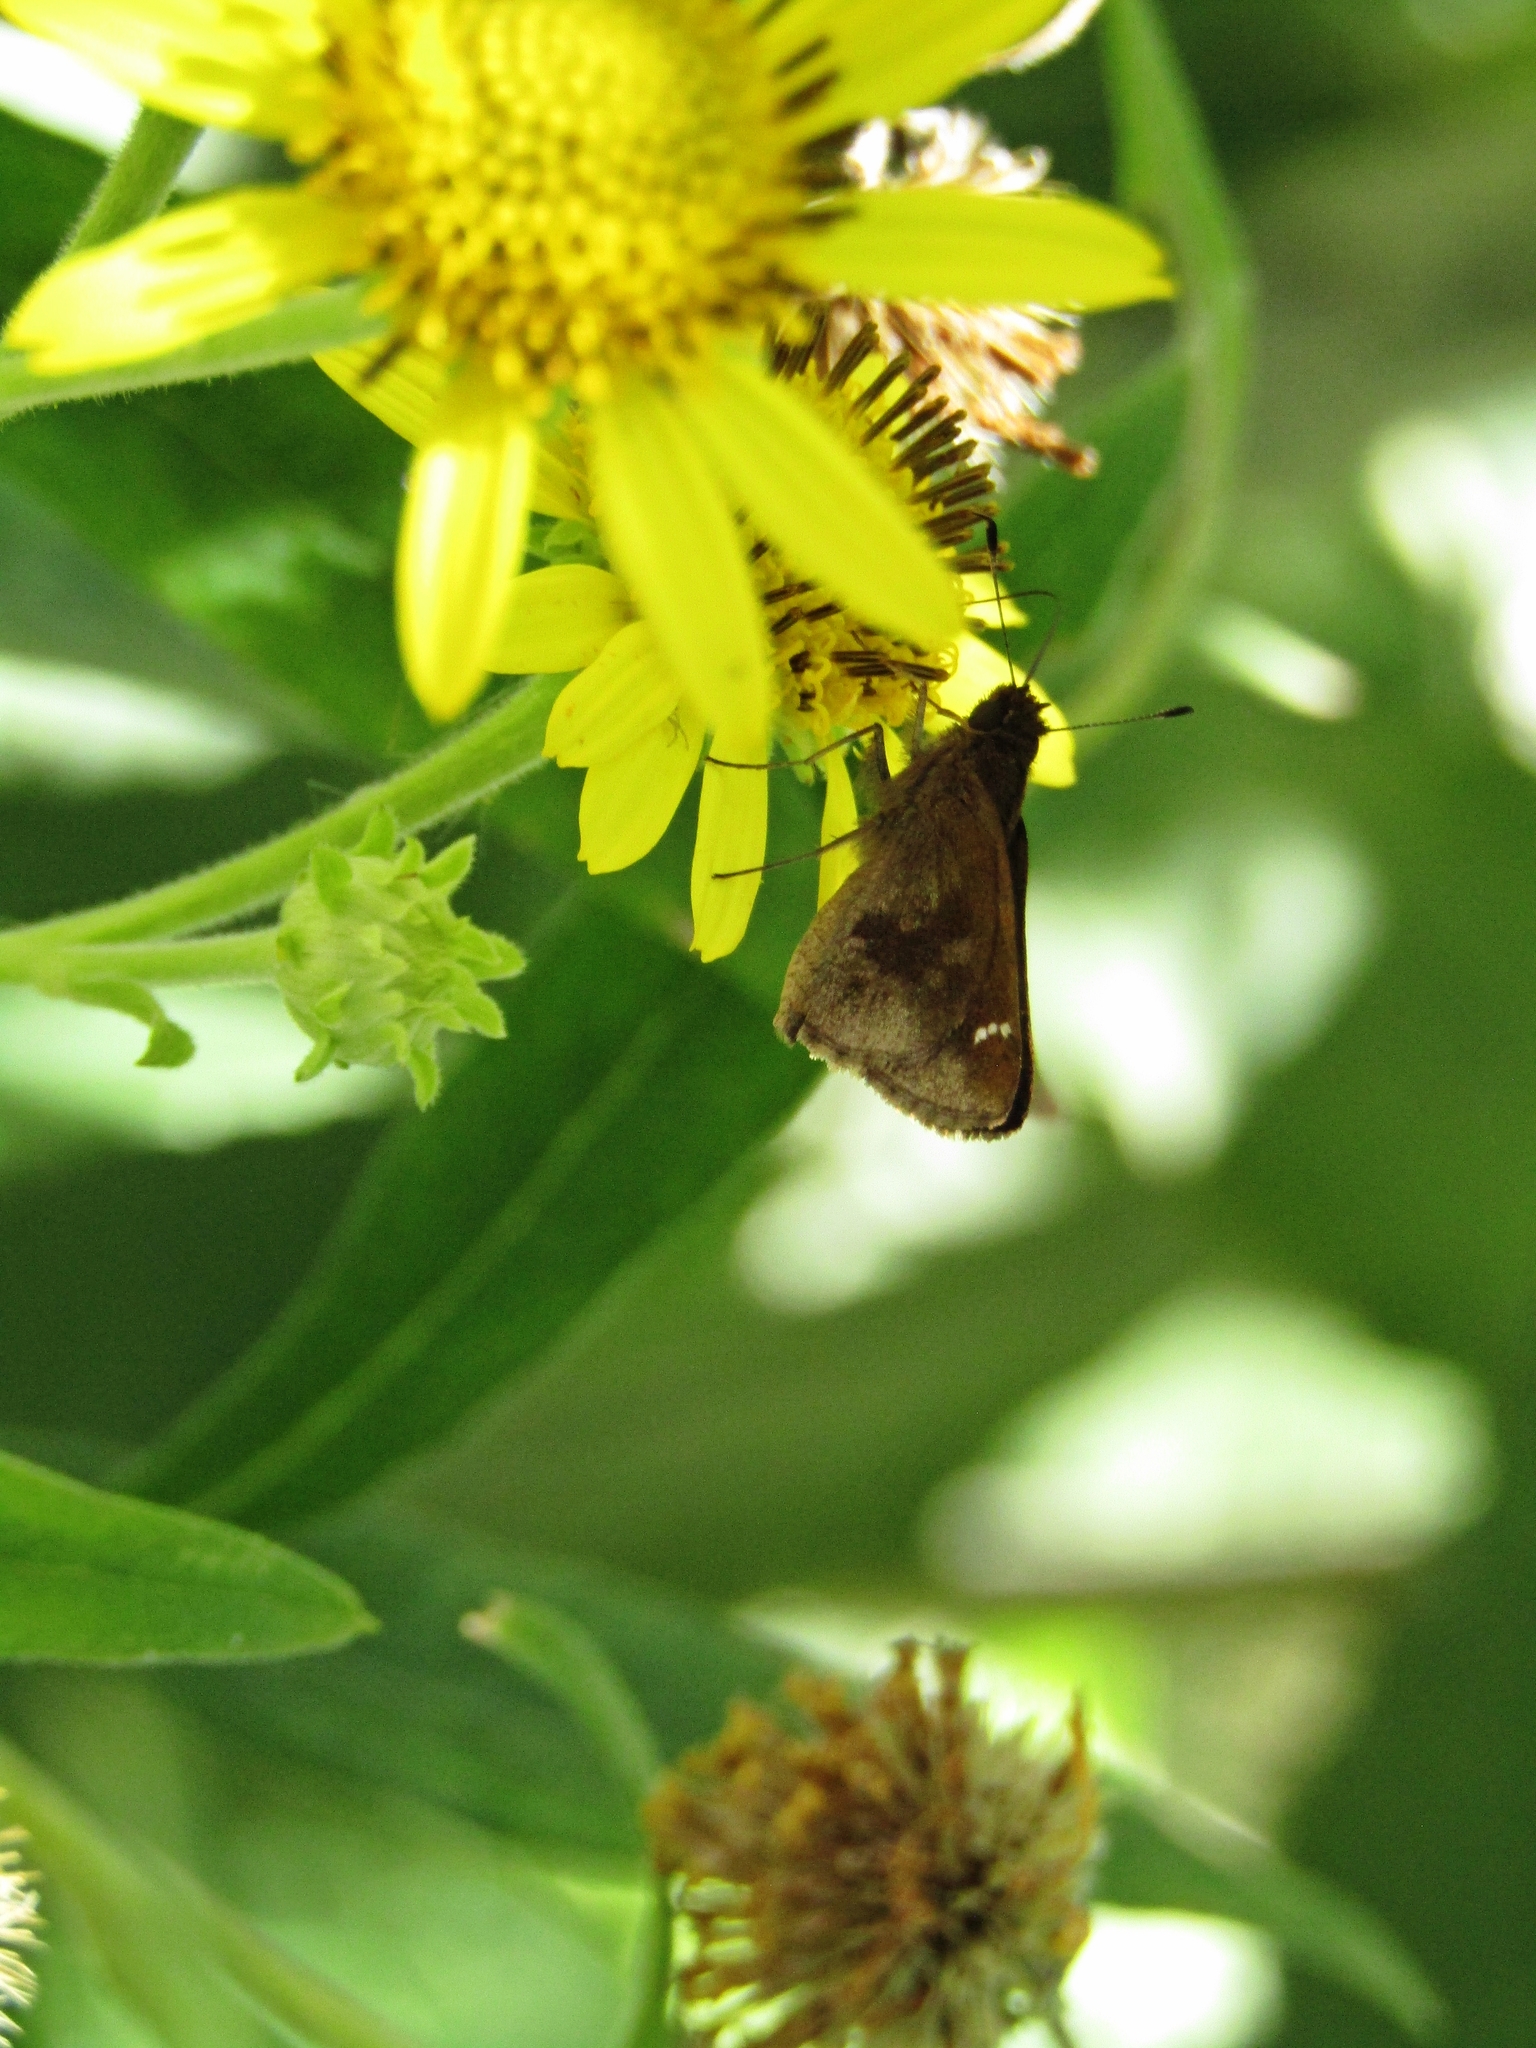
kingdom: Animalia
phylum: Arthropoda
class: Insecta
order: Lepidoptera
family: Hesperiidae
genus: Cymaenes
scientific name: Cymaenes
